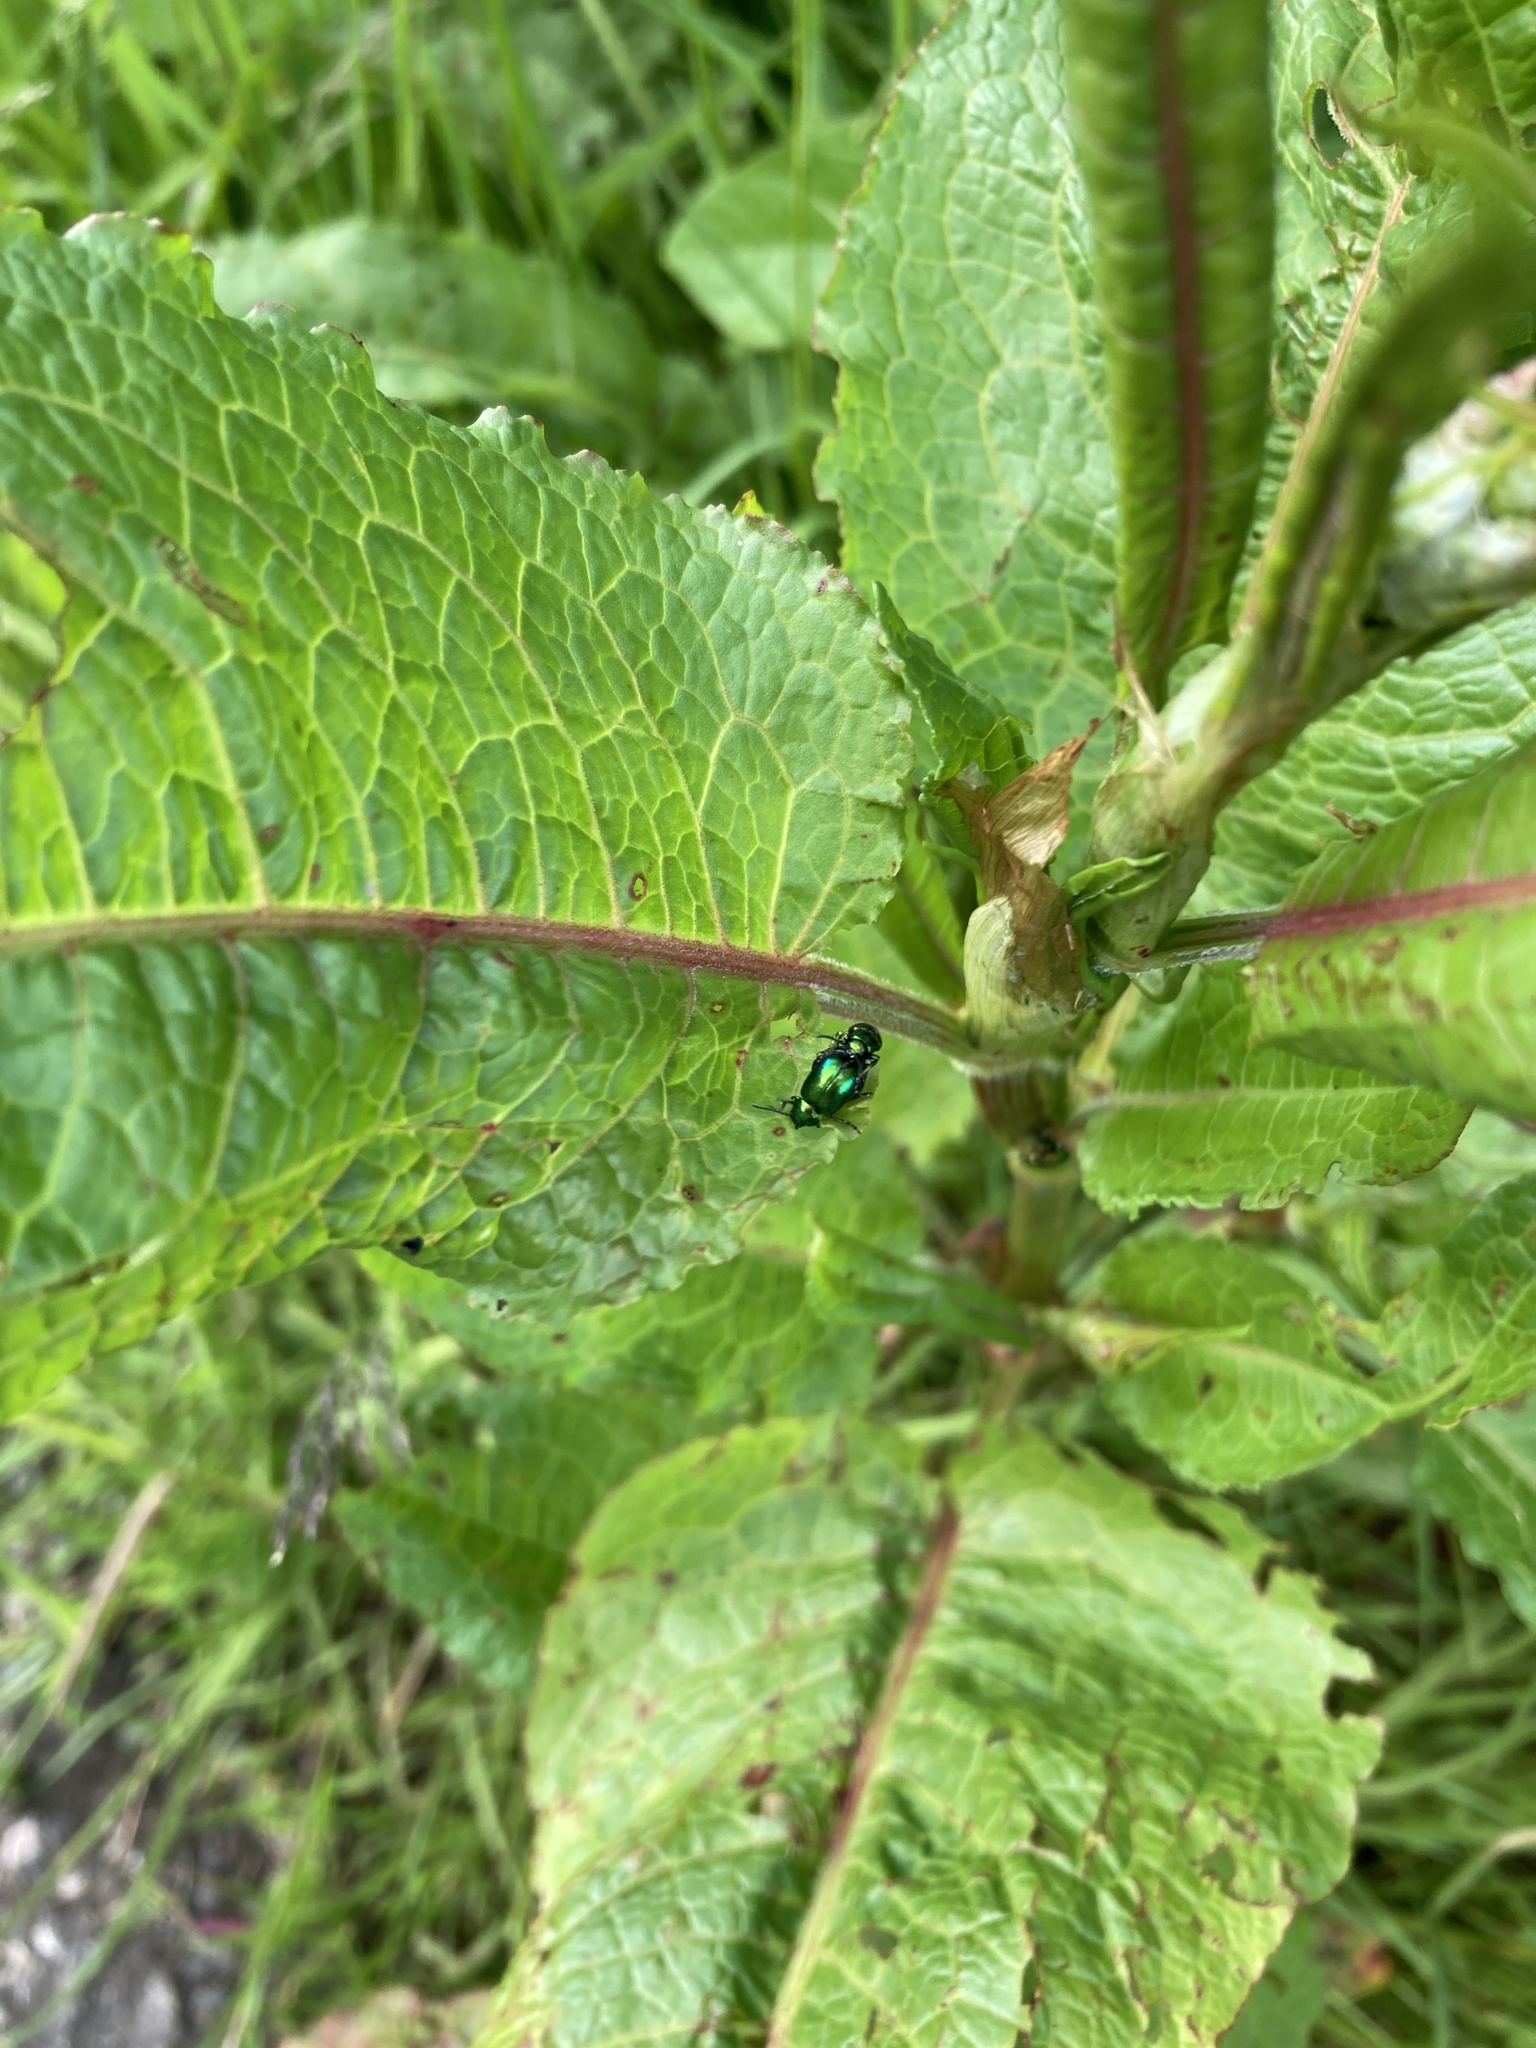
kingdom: Animalia
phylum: Arthropoda
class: Insecta
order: Coleoptera
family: Chrysomelidae
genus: Gastrophysa
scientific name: Gastrophysa viridula
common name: Green dock beetle
